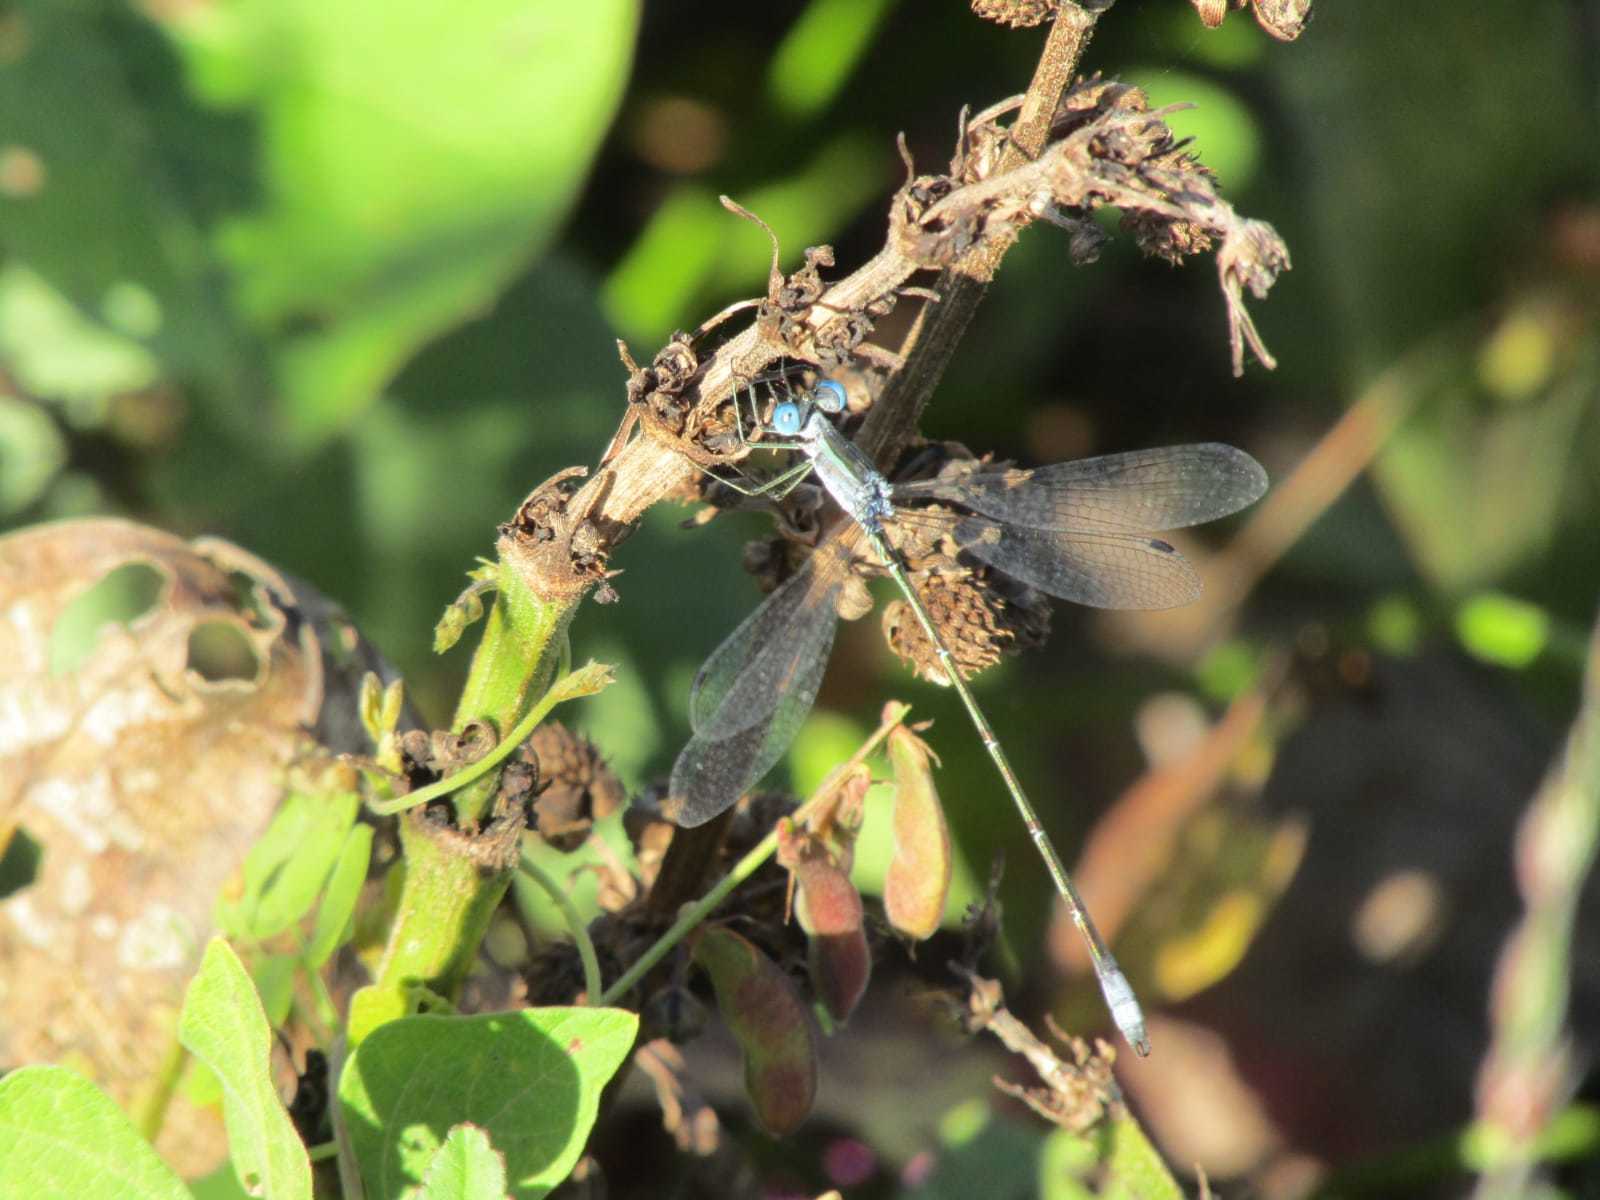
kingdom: Animalia
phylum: Arthropoda
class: Insecta
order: Odonata
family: Lestidae
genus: Lestes
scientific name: Lestes forficula
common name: Rainpool spreadwing
